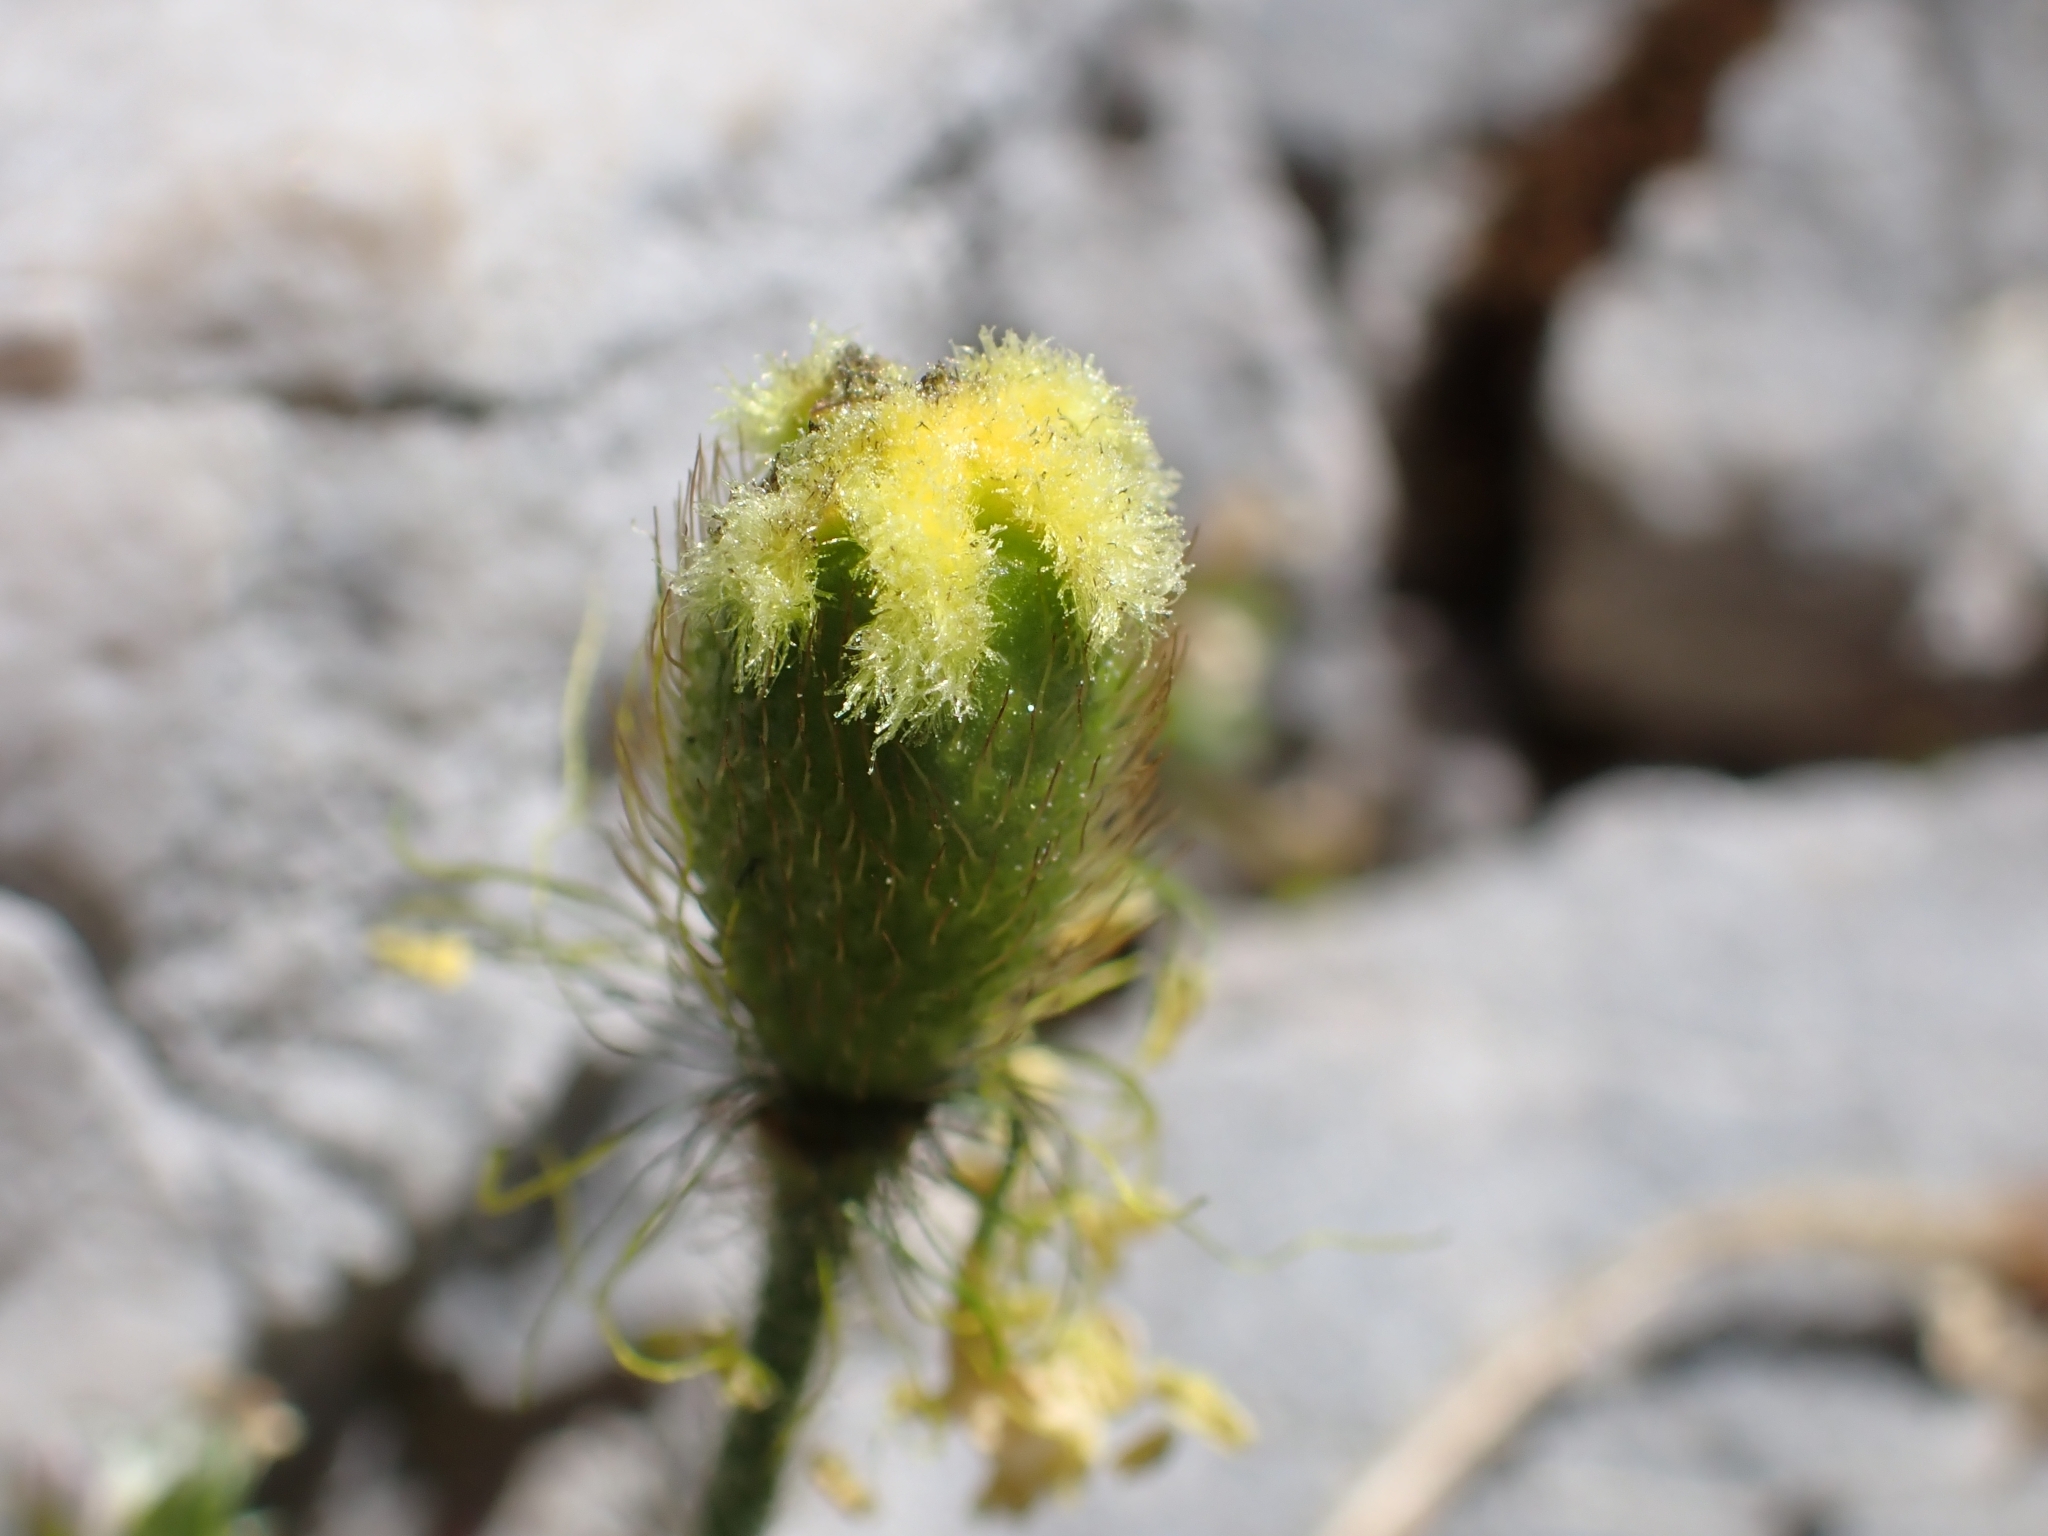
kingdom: Plantae
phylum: Tracheophyta
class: Magnoliopsida
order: Ranunculales
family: Papaveraceae
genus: Papaver
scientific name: Papaver alpinum
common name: Austrian poppy
